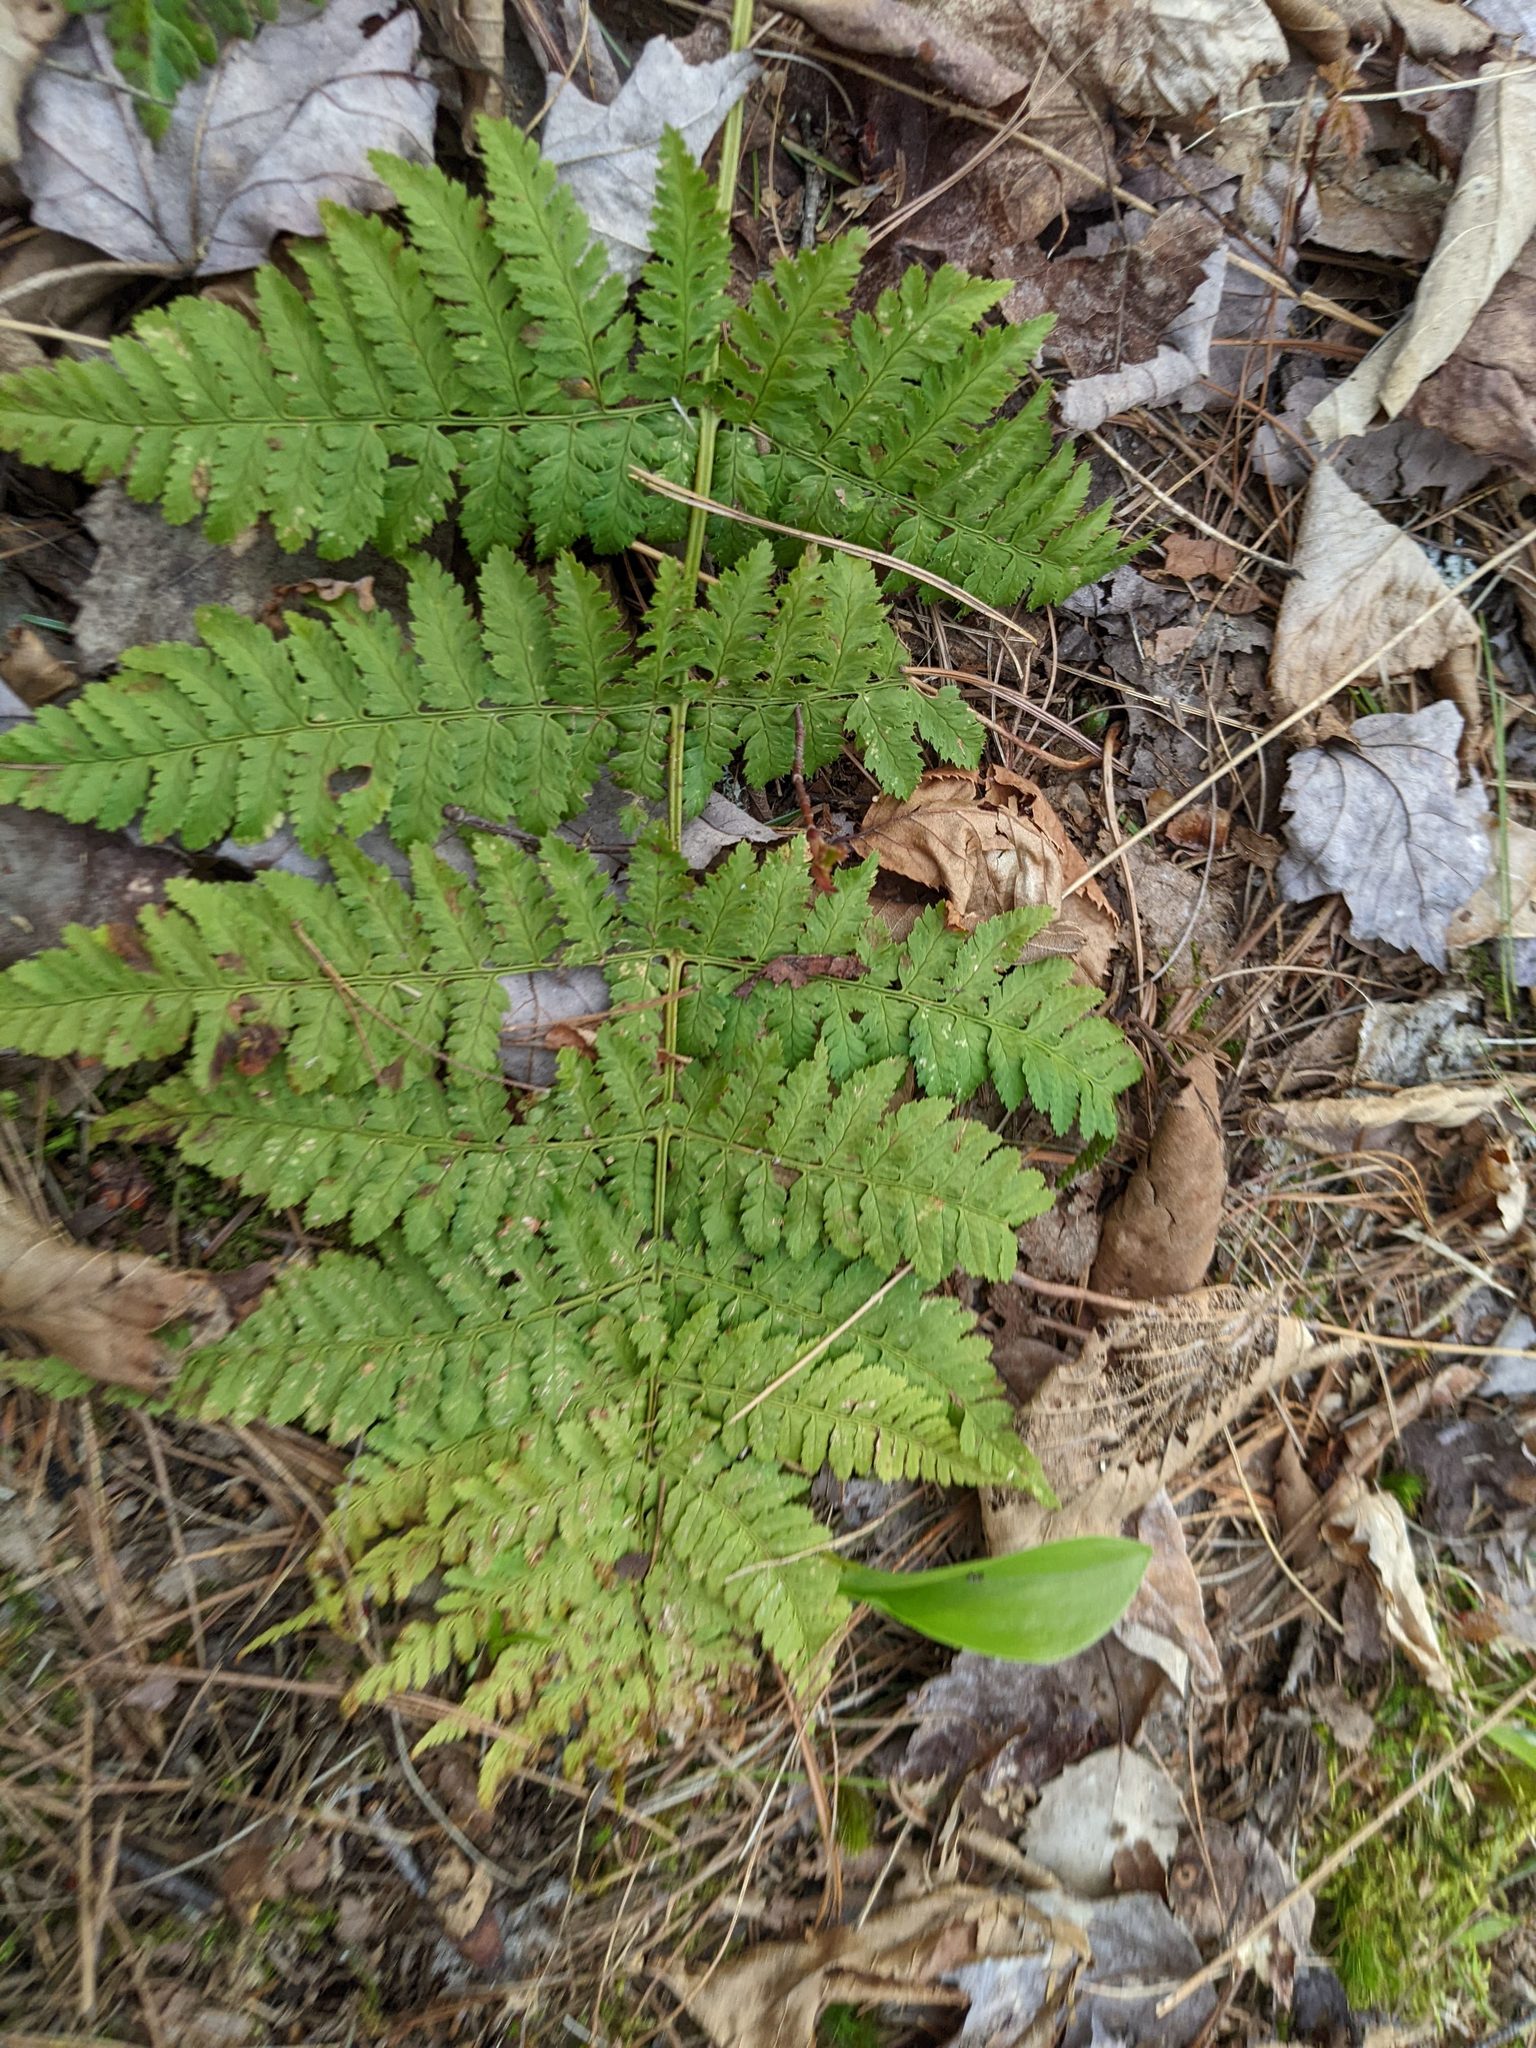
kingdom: Plantae
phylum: Tracheophyta
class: Polypodiopsida
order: Polypodiales
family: Dryopteridaceae
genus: Dryopteris
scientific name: Dryopteris intermedia
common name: Evergreen wood fern
